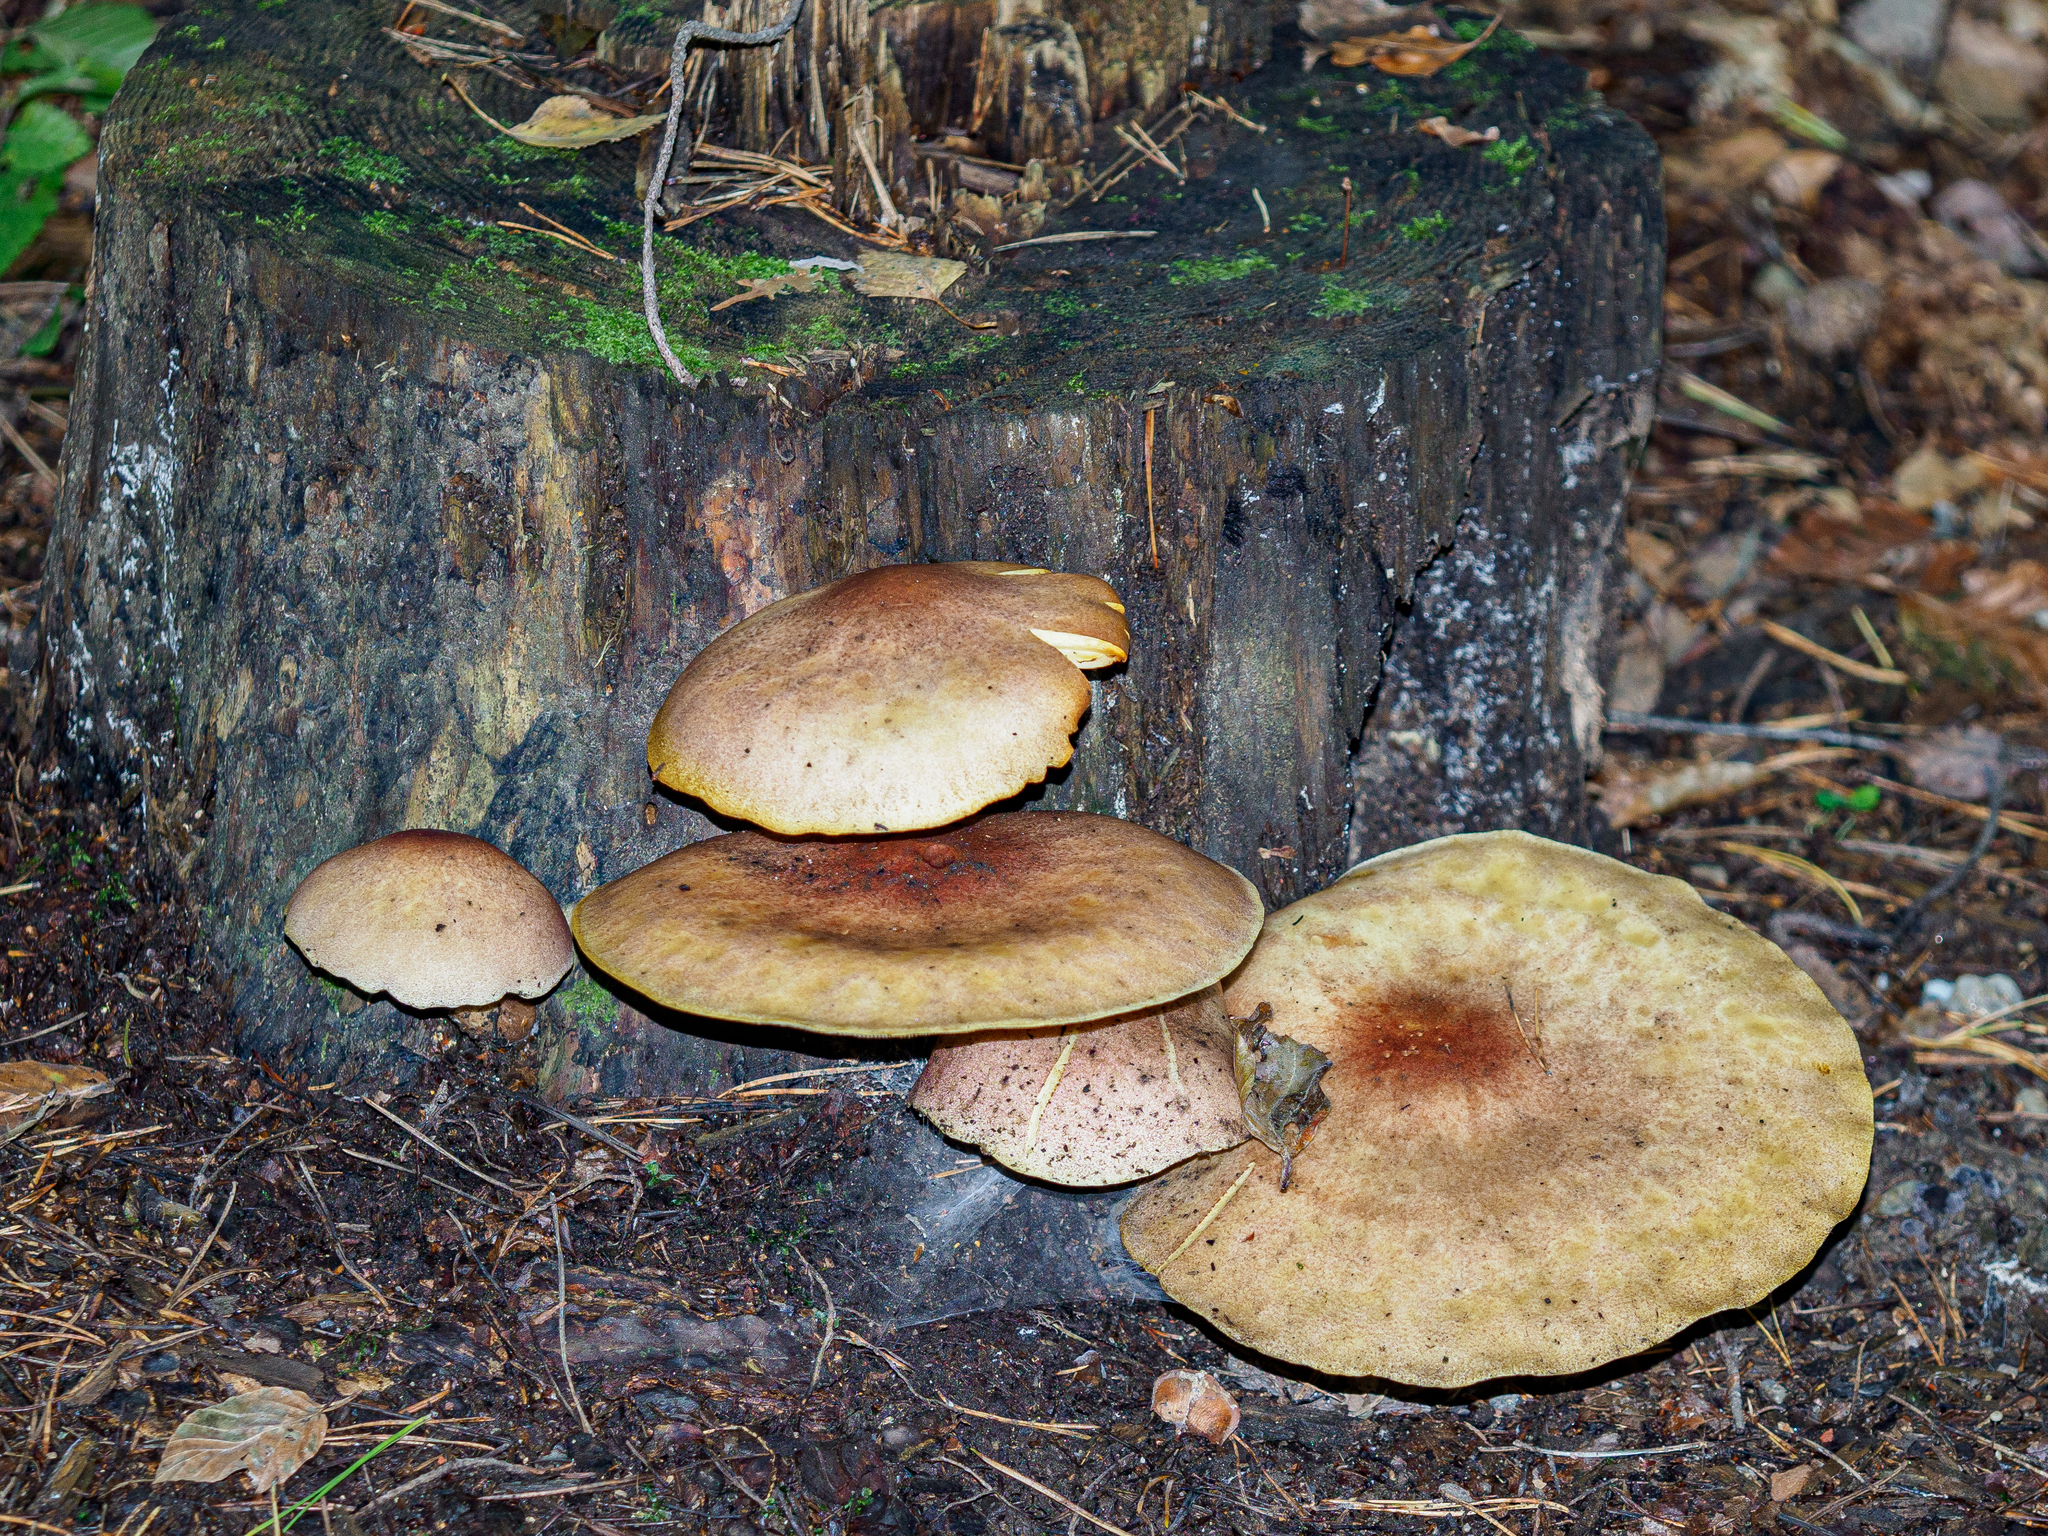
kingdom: Fungi
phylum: Basidiomycota
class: Agaricomycetes
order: Agaricales
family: Tricholomataceae
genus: Tricholomopsis
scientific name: Tricholomopsis rutilans
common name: Plums and custard
